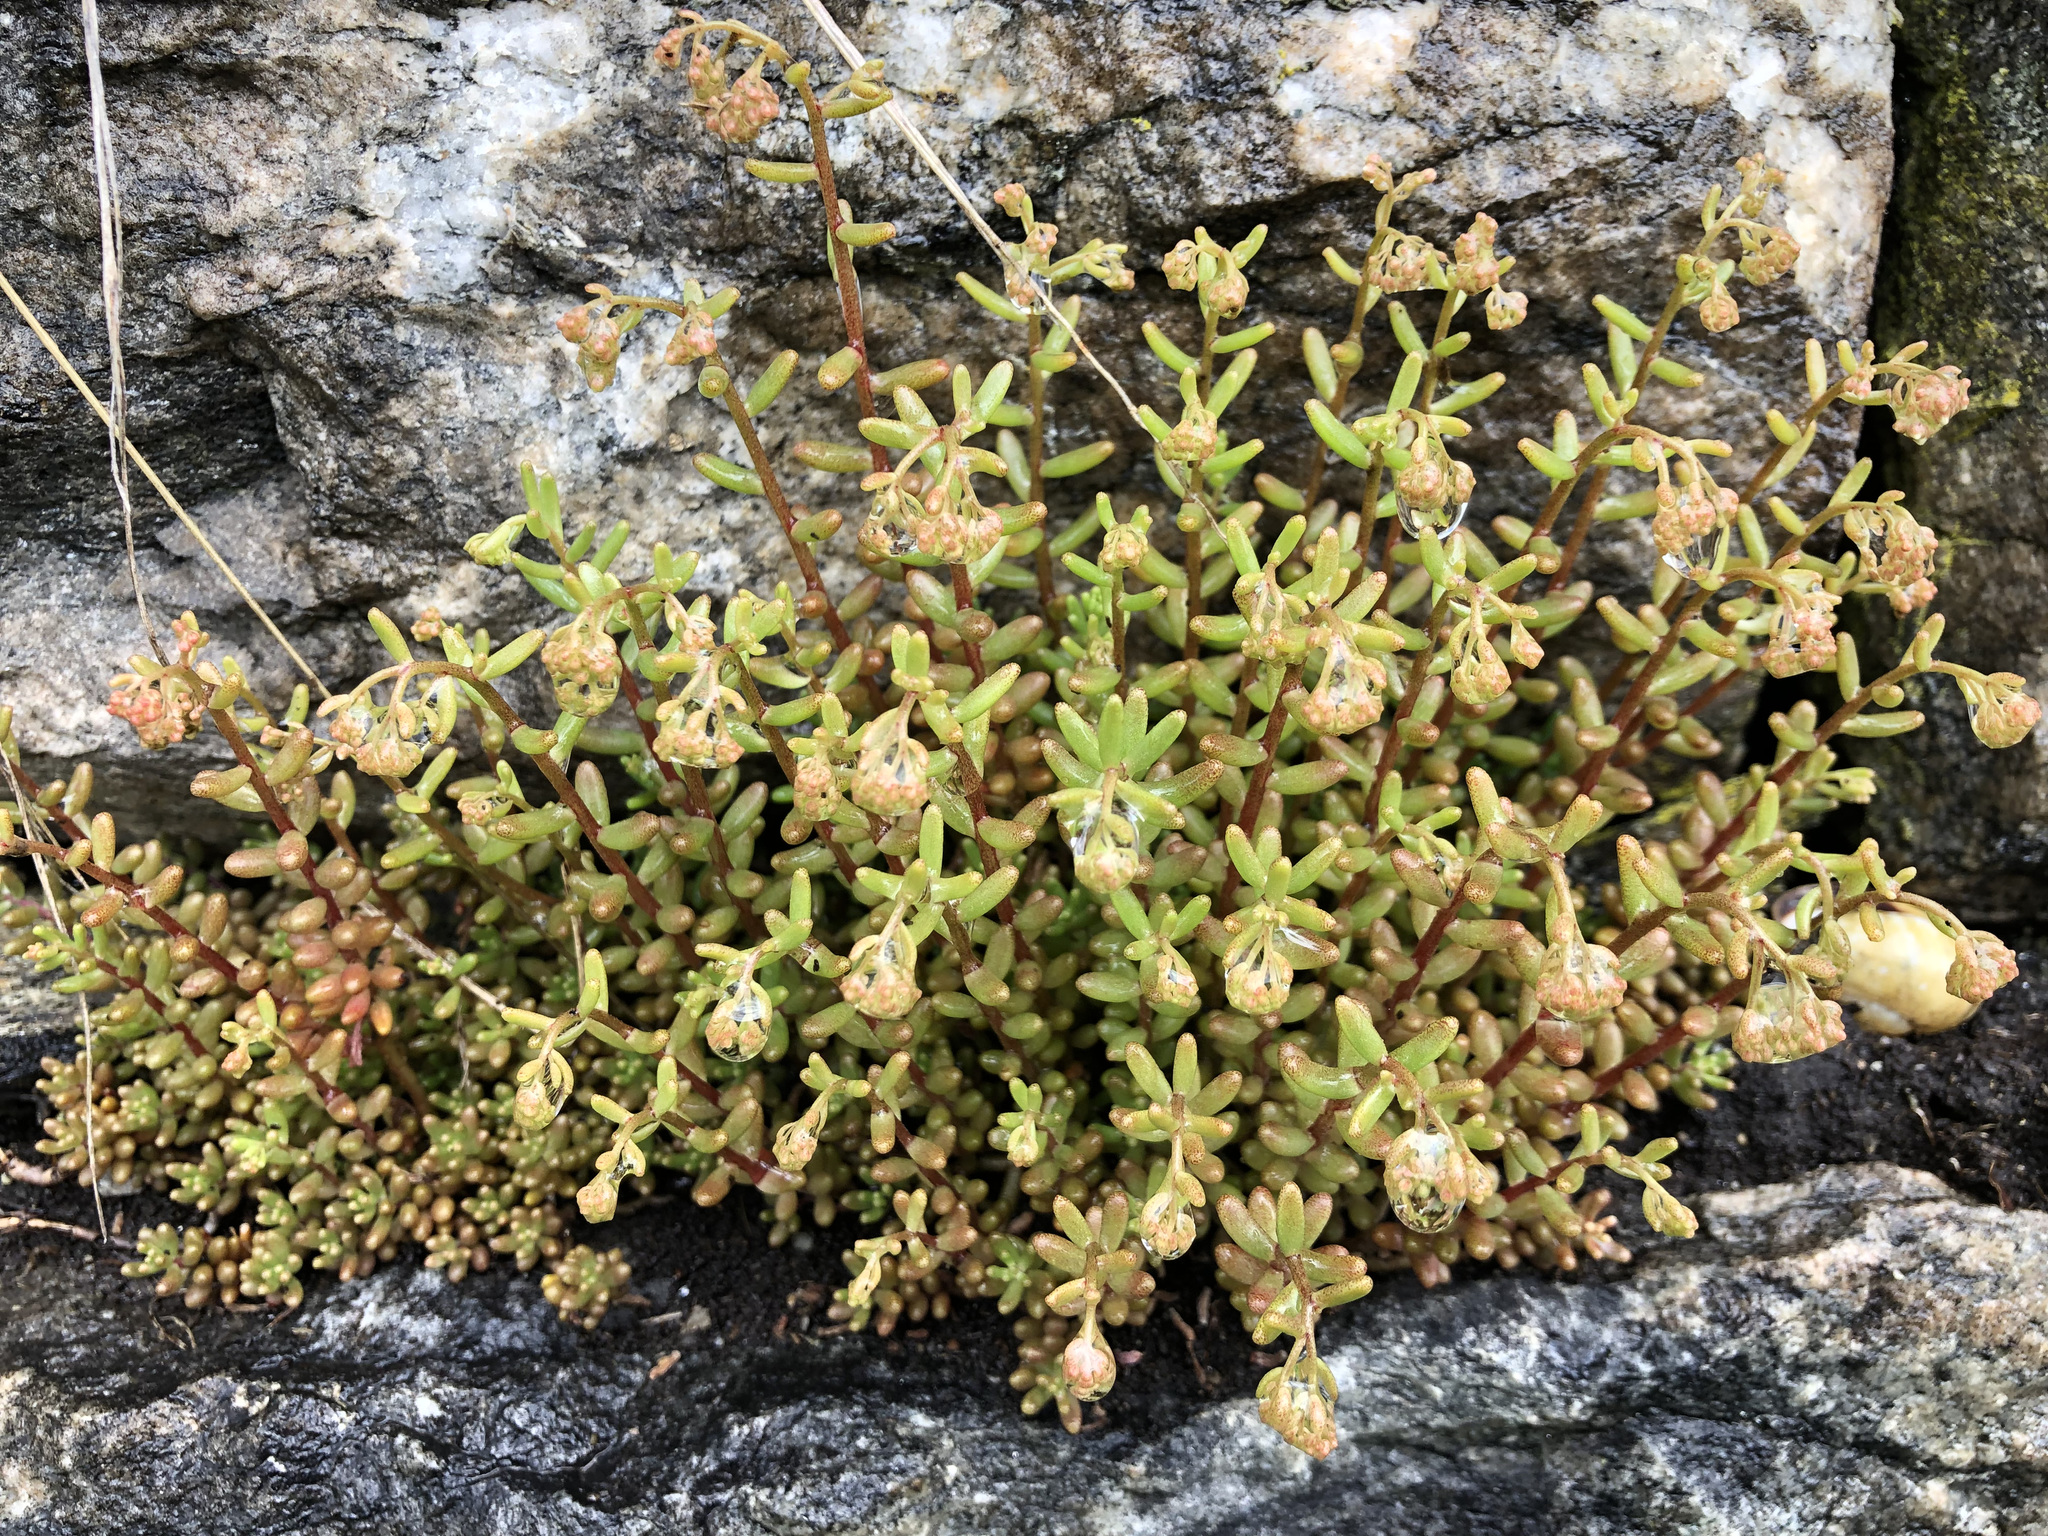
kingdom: Plantae
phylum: Tracheophyta
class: Magnoliopsida
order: Saxifragales
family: Crassulaceae
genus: Sedum
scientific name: Sedum album
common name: White stonecrop
